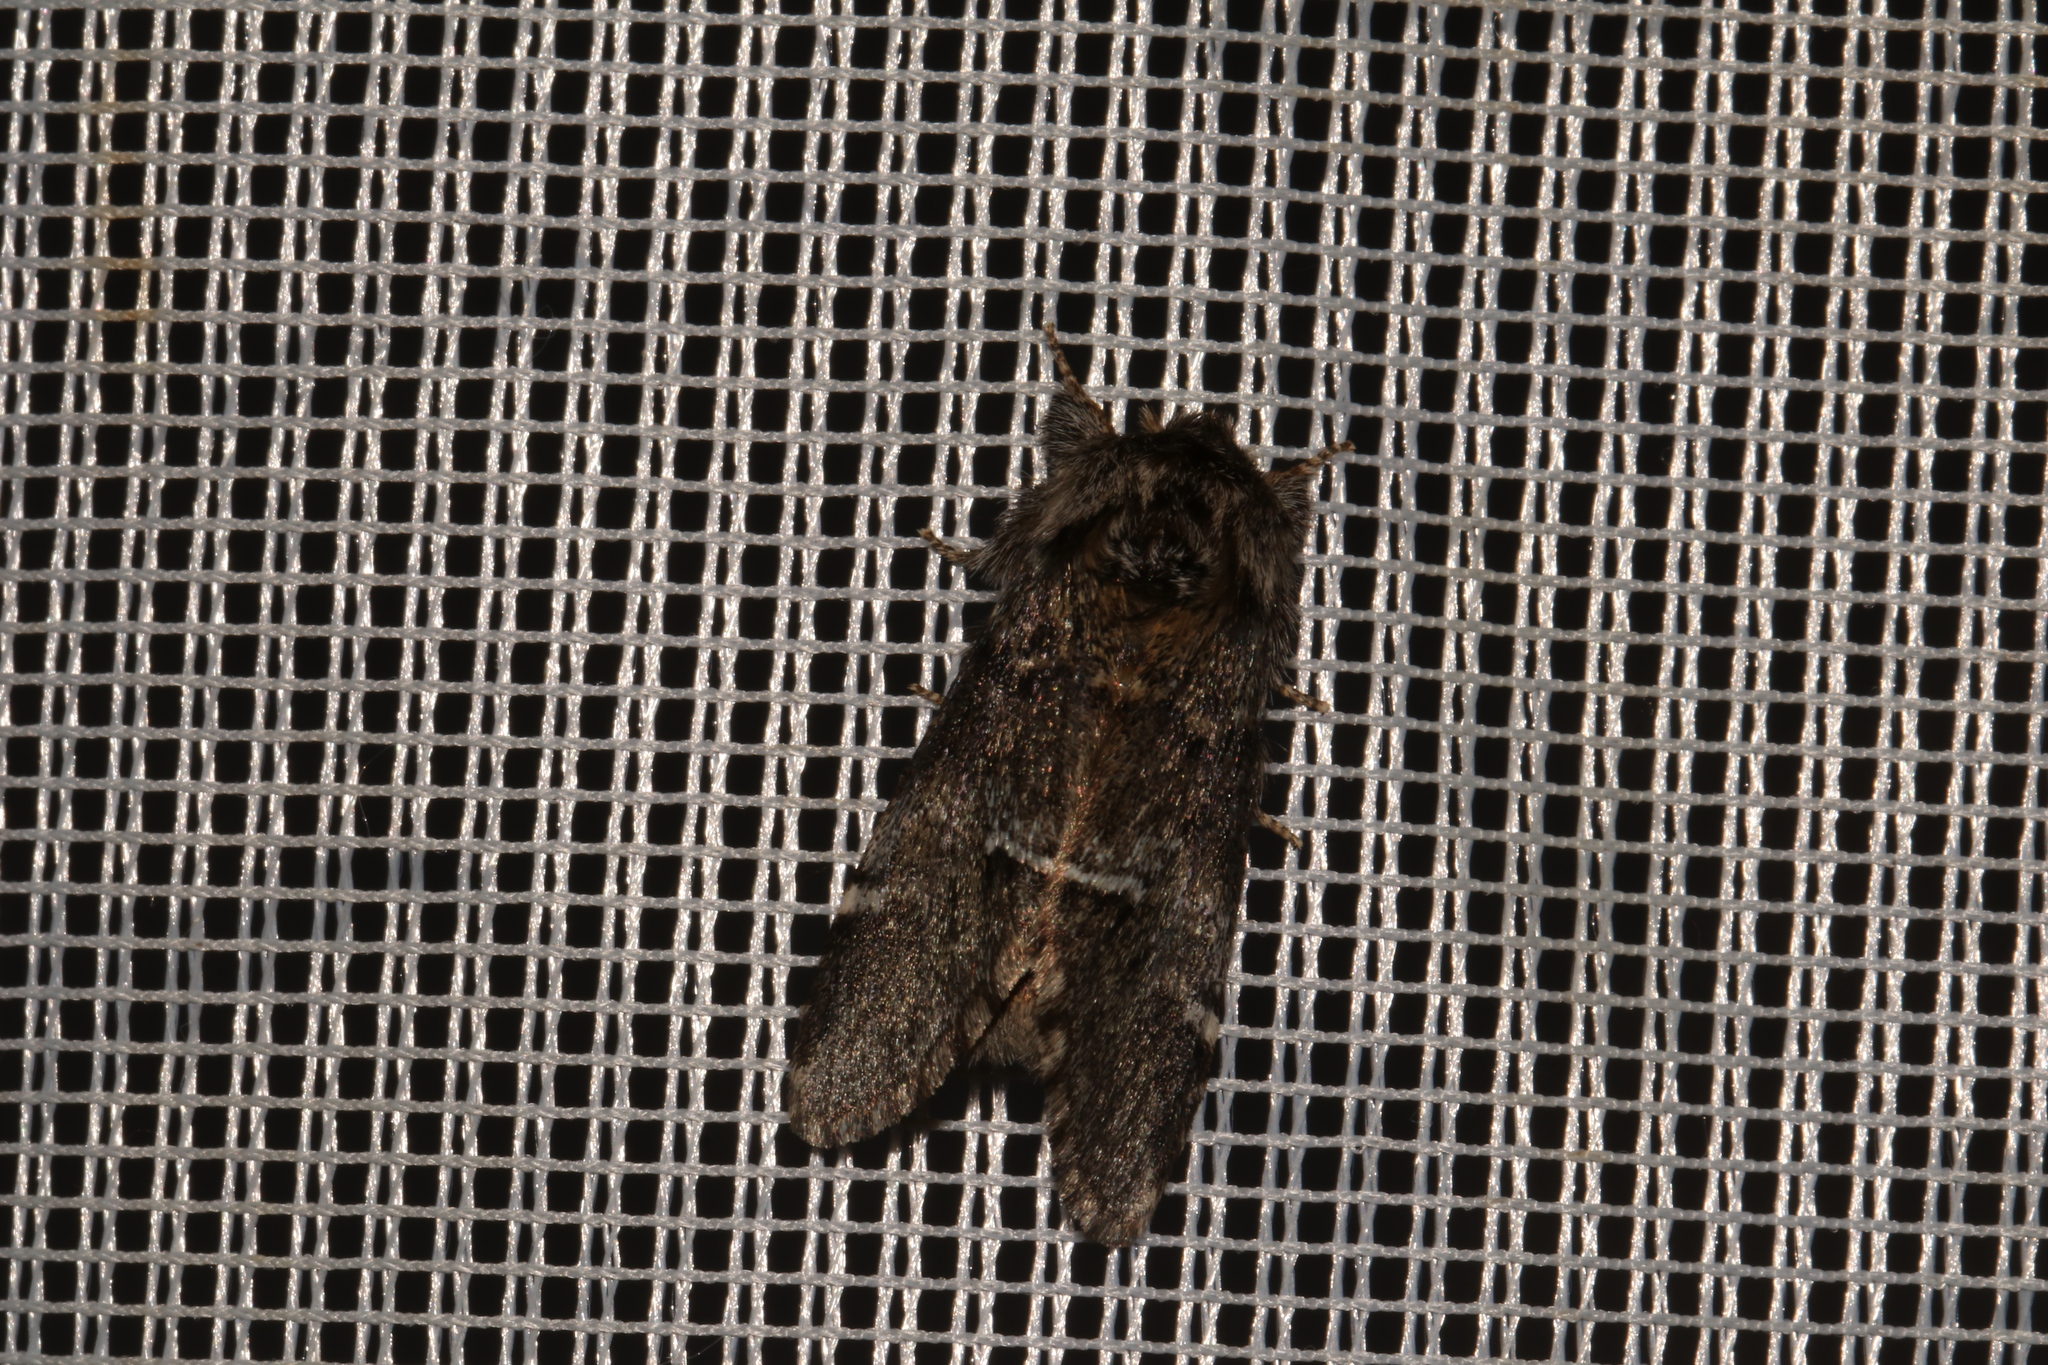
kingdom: Animalia
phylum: Arthropoda
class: Insecta
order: Lepidoptera
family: Notodontidae
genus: Drymonia
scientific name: Drymonia dodonaea
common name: Marbled brown
